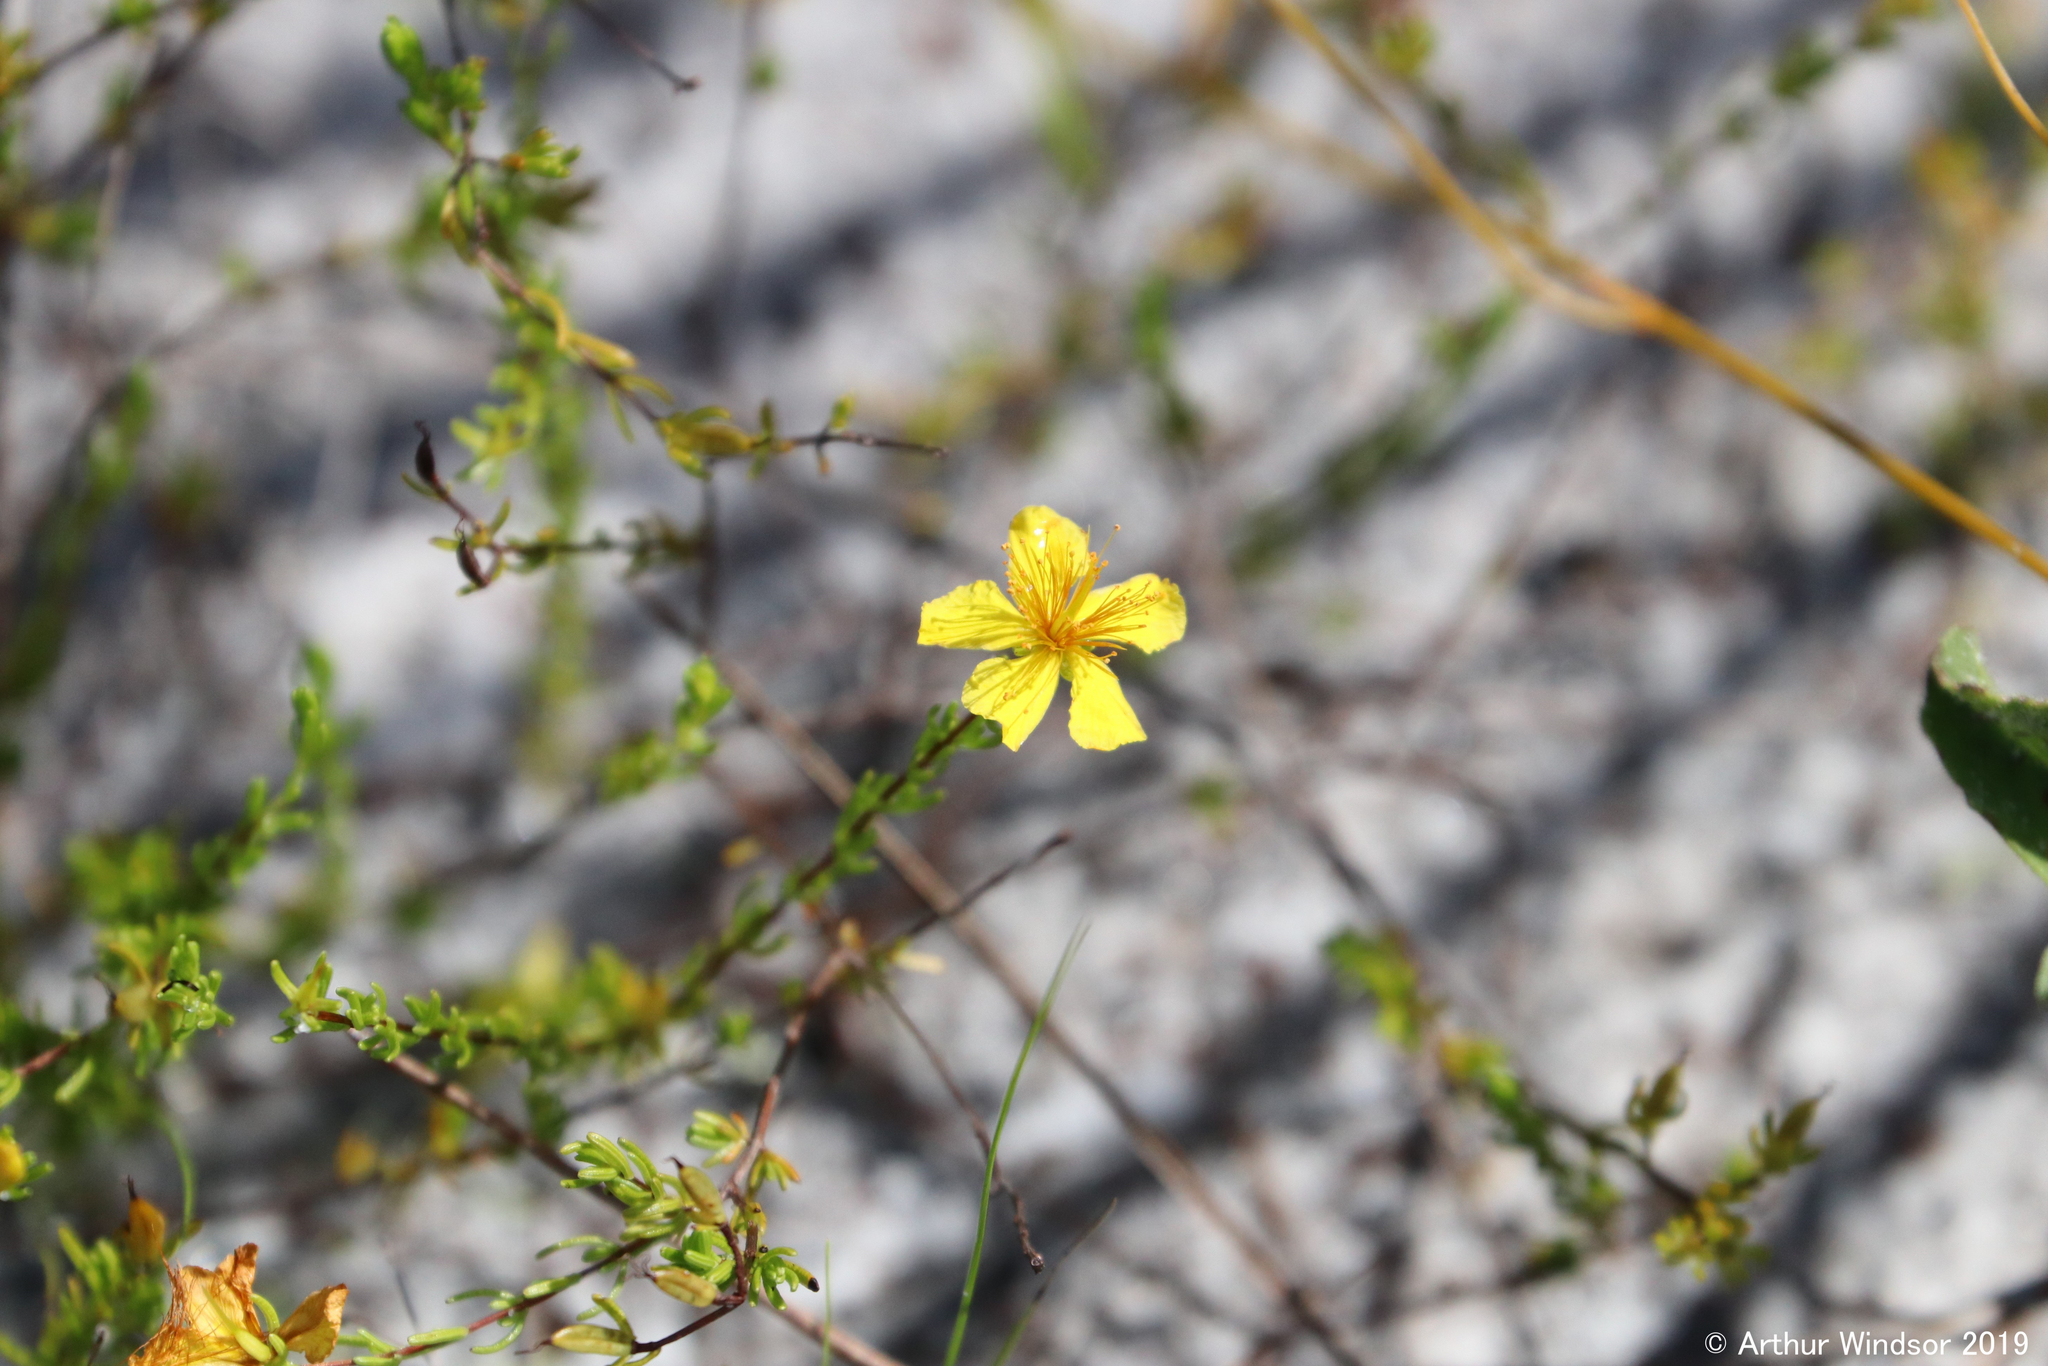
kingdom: Plantae
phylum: Tracheophyta
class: Magnoliopsida
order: Malpighiales
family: Hypericaceae
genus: Hypericum
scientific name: Hypericum tenuifolium
